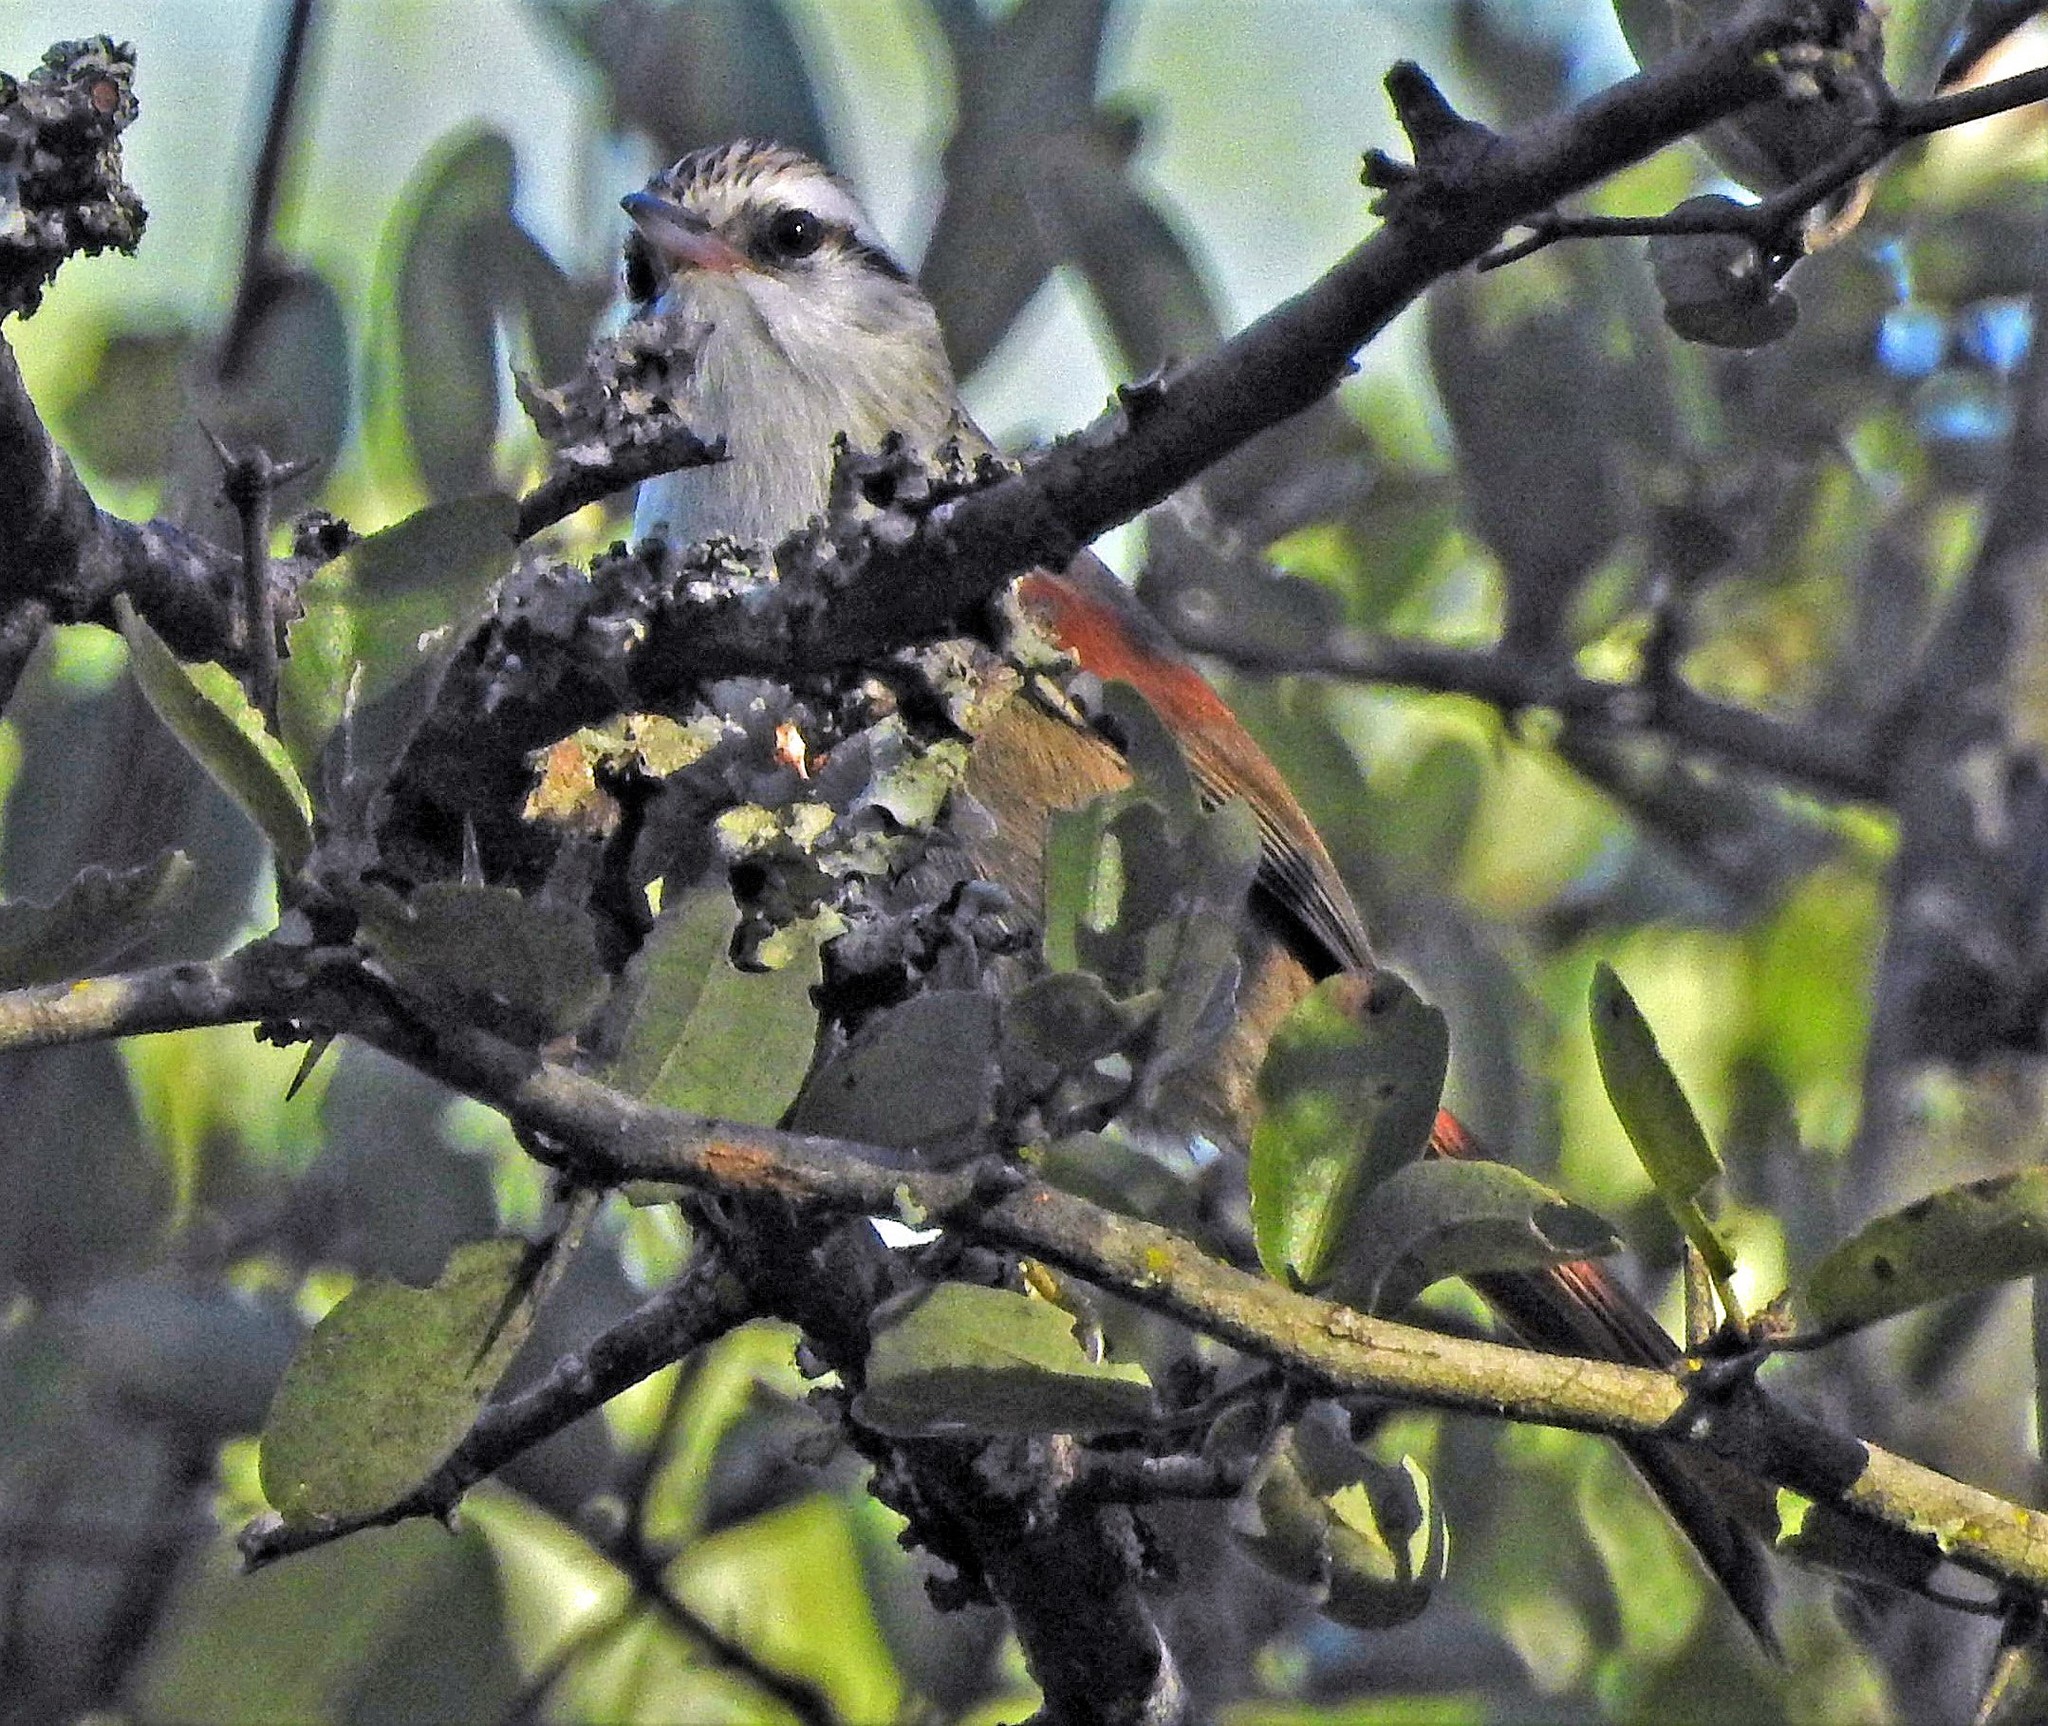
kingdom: Animalia
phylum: Chordata
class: Aves
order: Passeriformes
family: Furnariidae
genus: Cranioleuca
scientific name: Cranioleuca pyrrhophia
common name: Stripe-crowned spinetail
